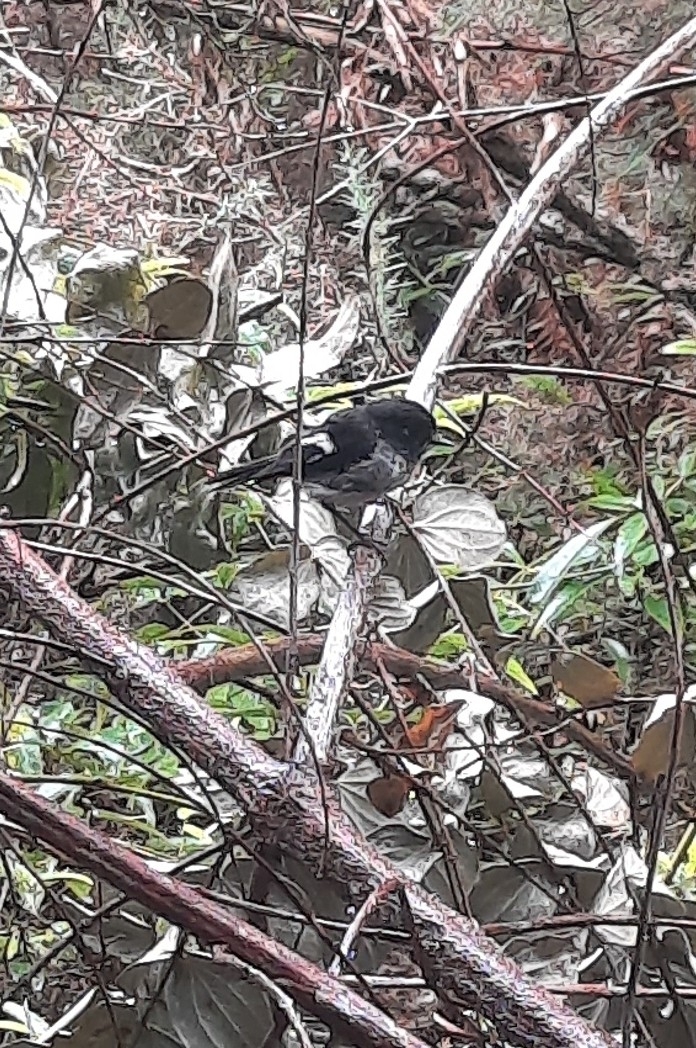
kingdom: Animalia
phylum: Chordata
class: Aves
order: Passeriformes
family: Petroicidae
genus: Petroica
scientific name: Petroica macrocephala
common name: Tomtit
